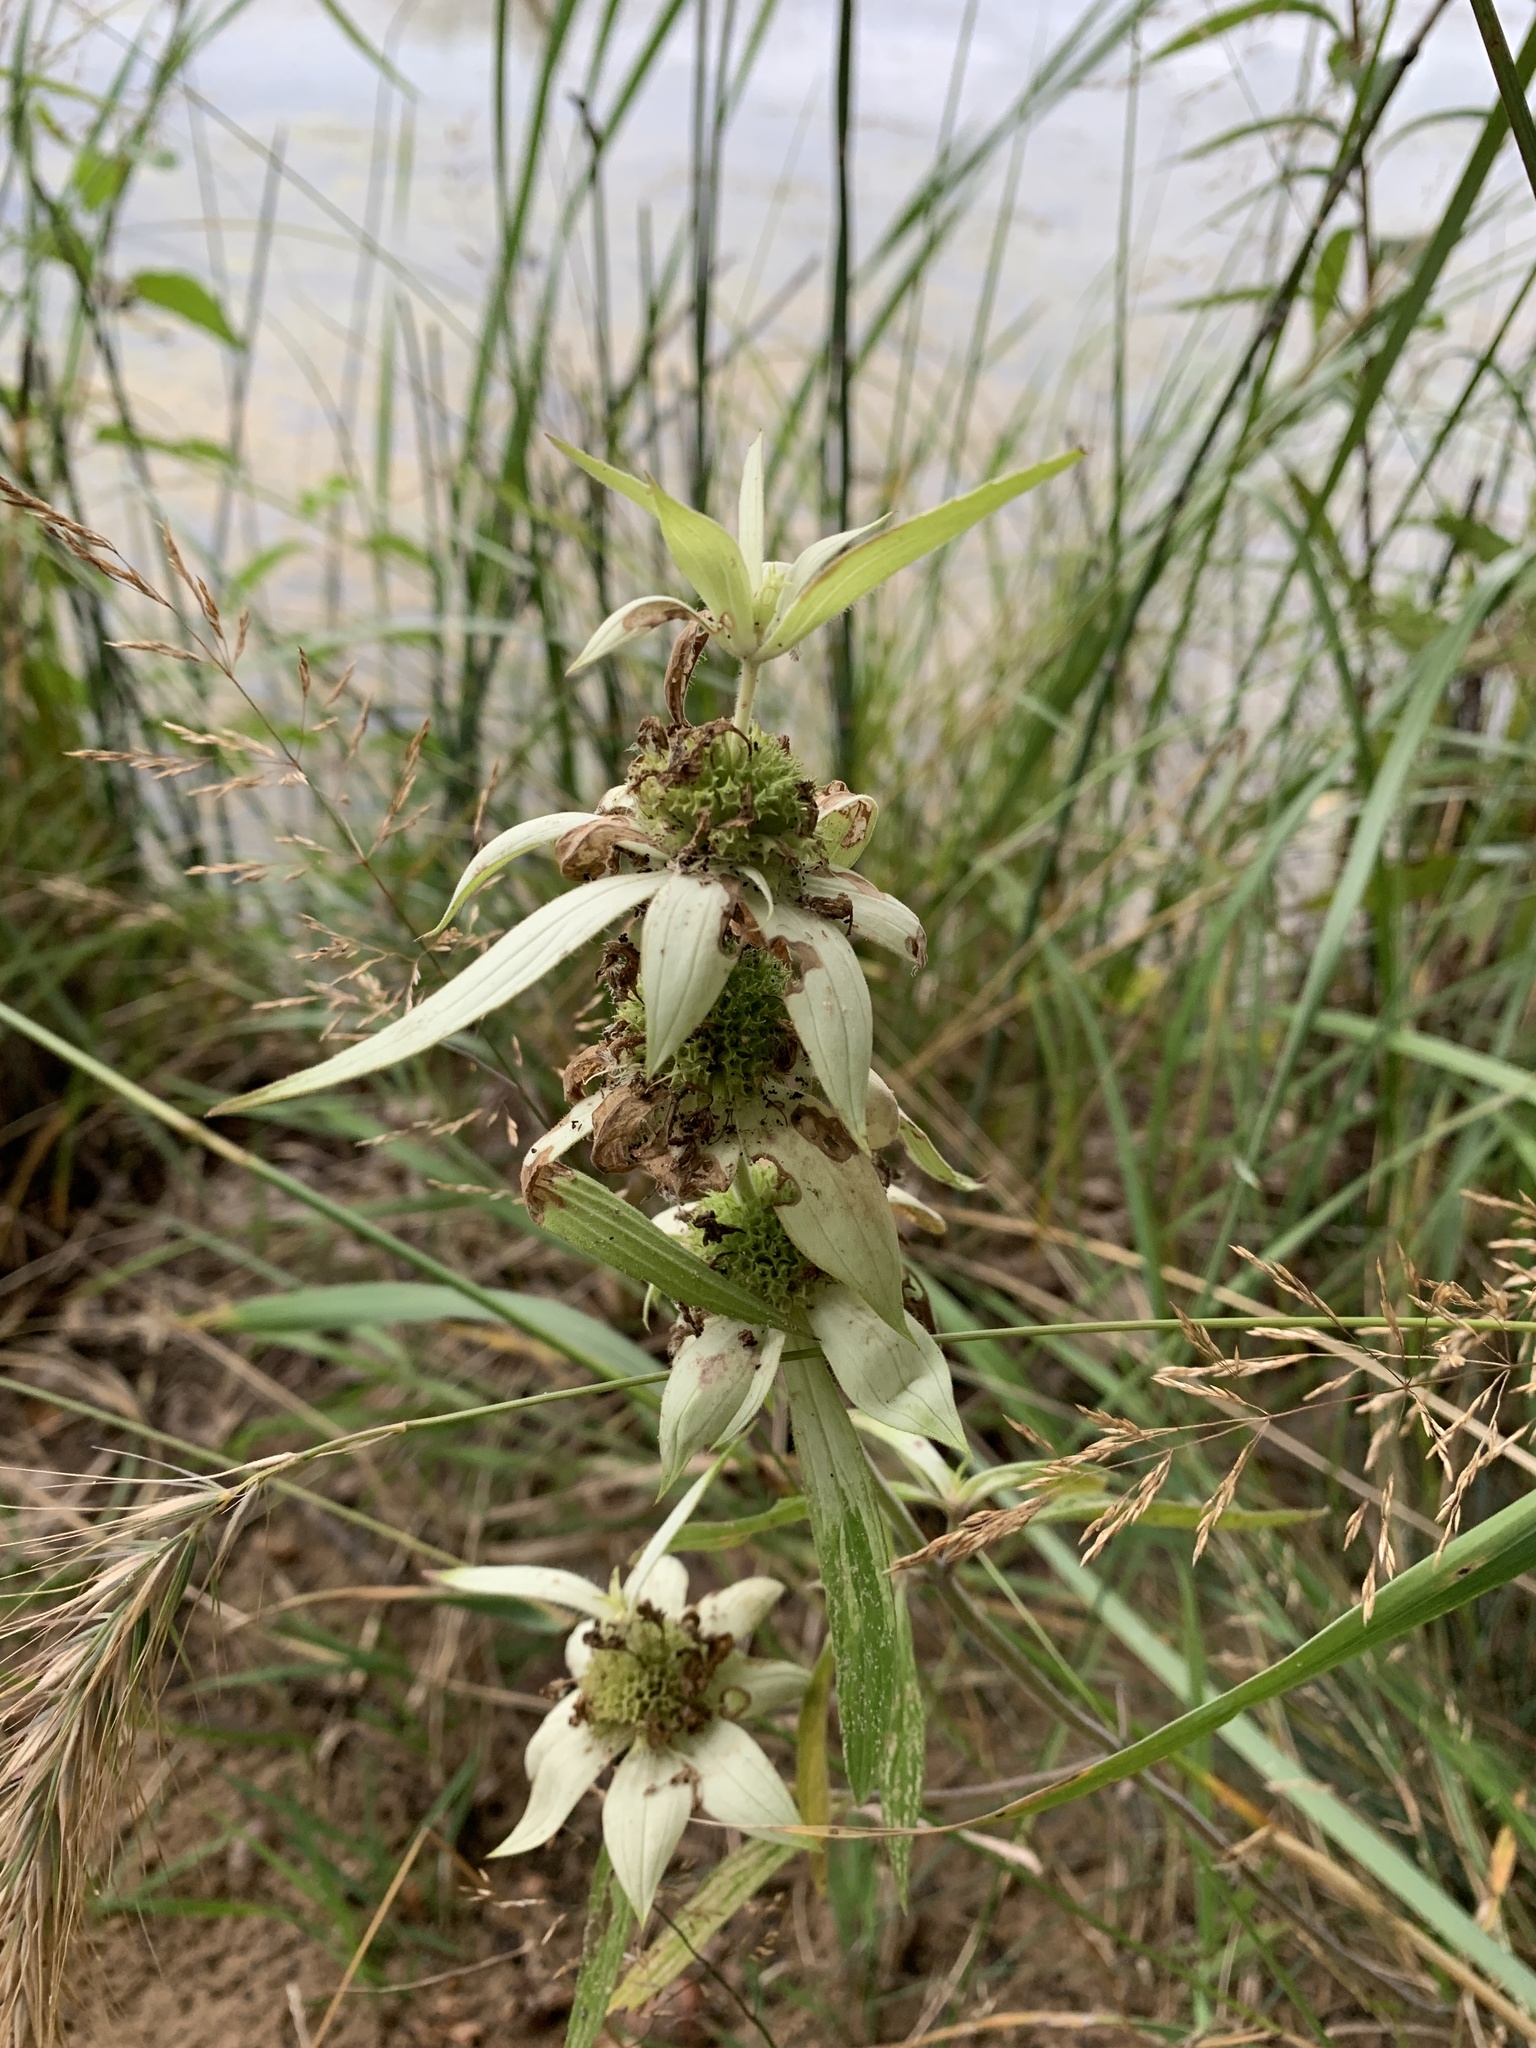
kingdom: Plantae
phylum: Tracheophyta
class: Magnoliopsida
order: Lamiales
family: Lamiaceae
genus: Monarda
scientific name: Monarda punctata
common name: Dotted monarda
